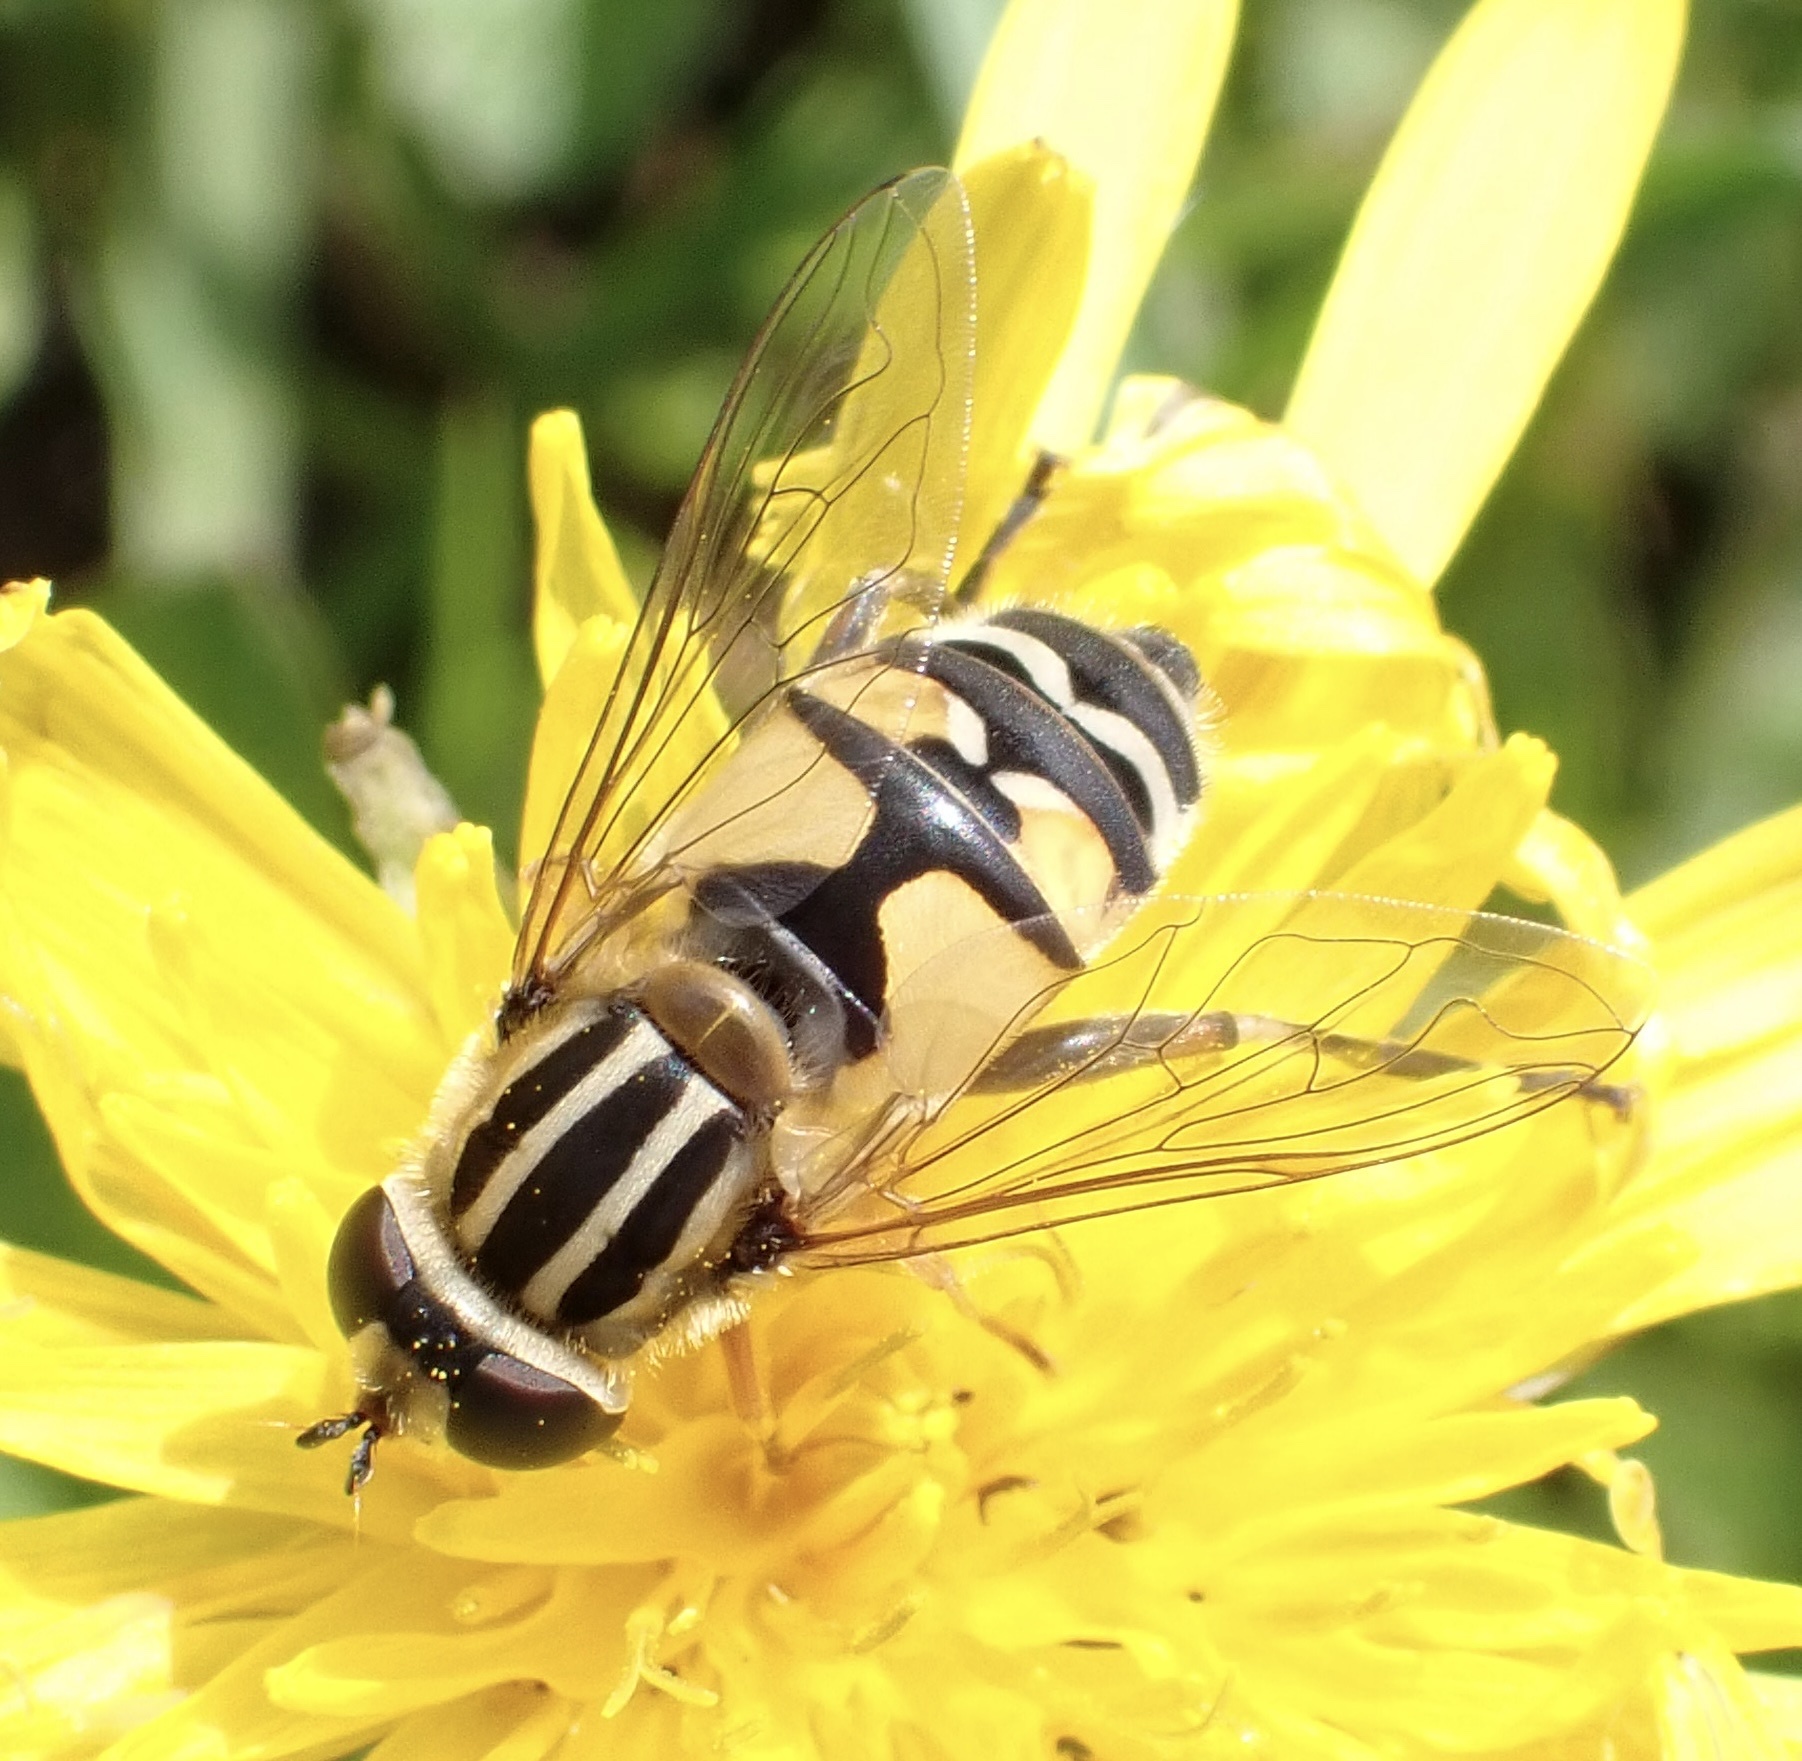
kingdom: Animalia
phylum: Arthropoda
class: Insecta
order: Diptera
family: Syrphidae
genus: Helophilus
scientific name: Helophilus trivittatus
